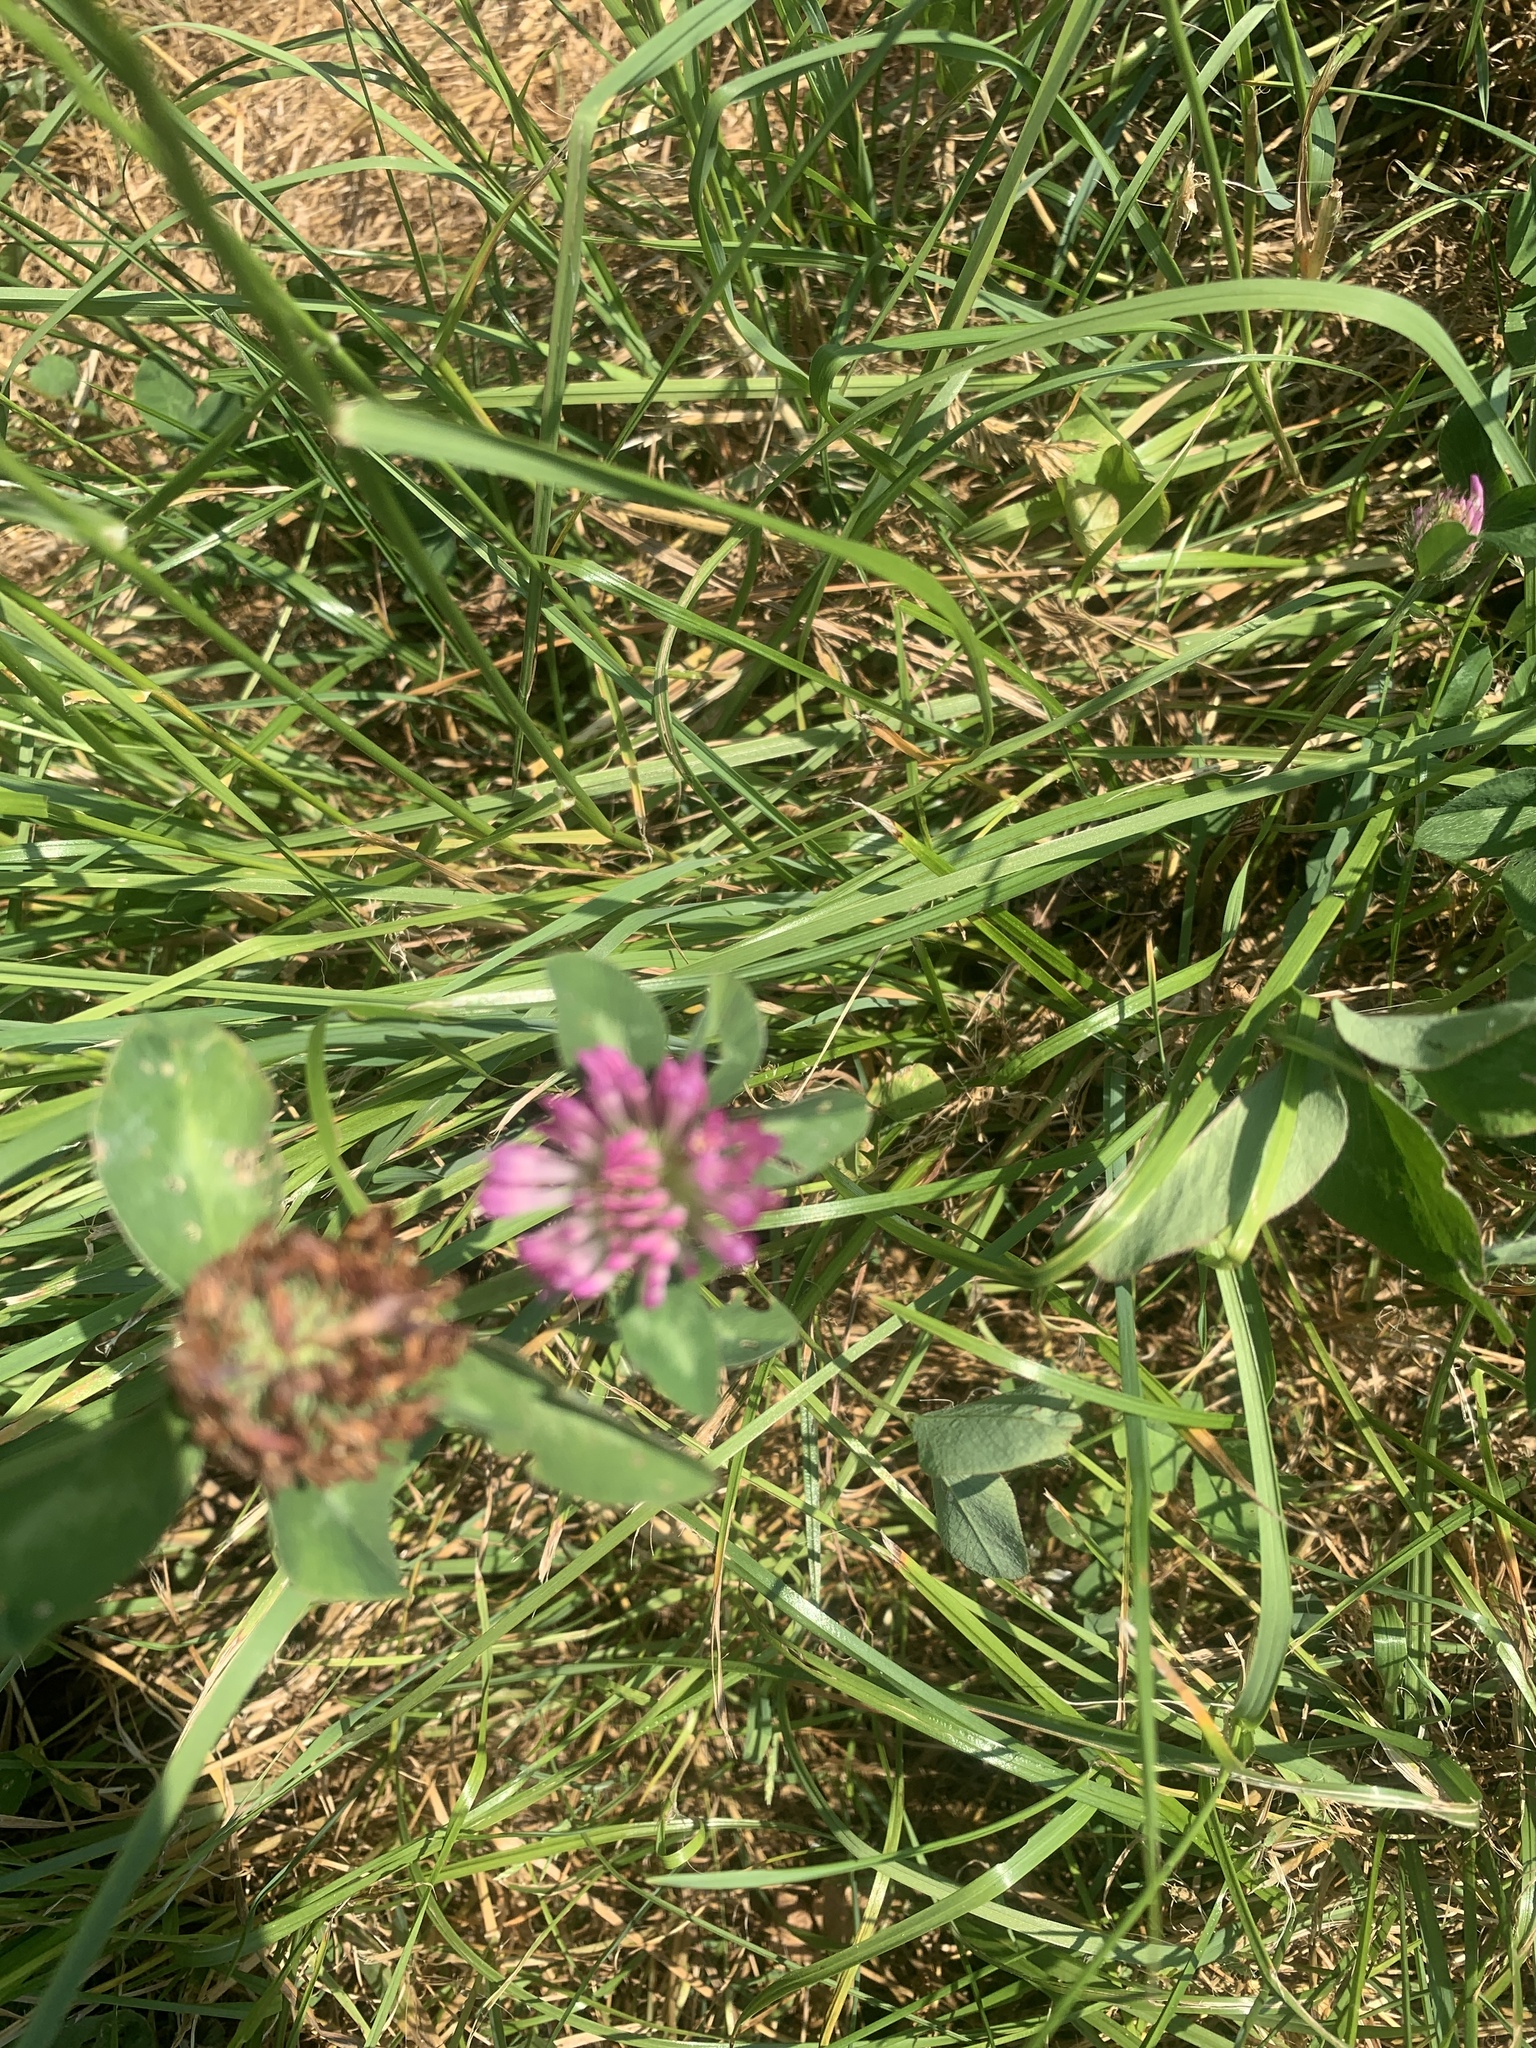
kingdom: Plantae
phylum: Tracheophyta
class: Magnoliopsida
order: Fabales
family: Fabaceae
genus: Trifolium
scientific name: Trifolium pratense
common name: Red clover
